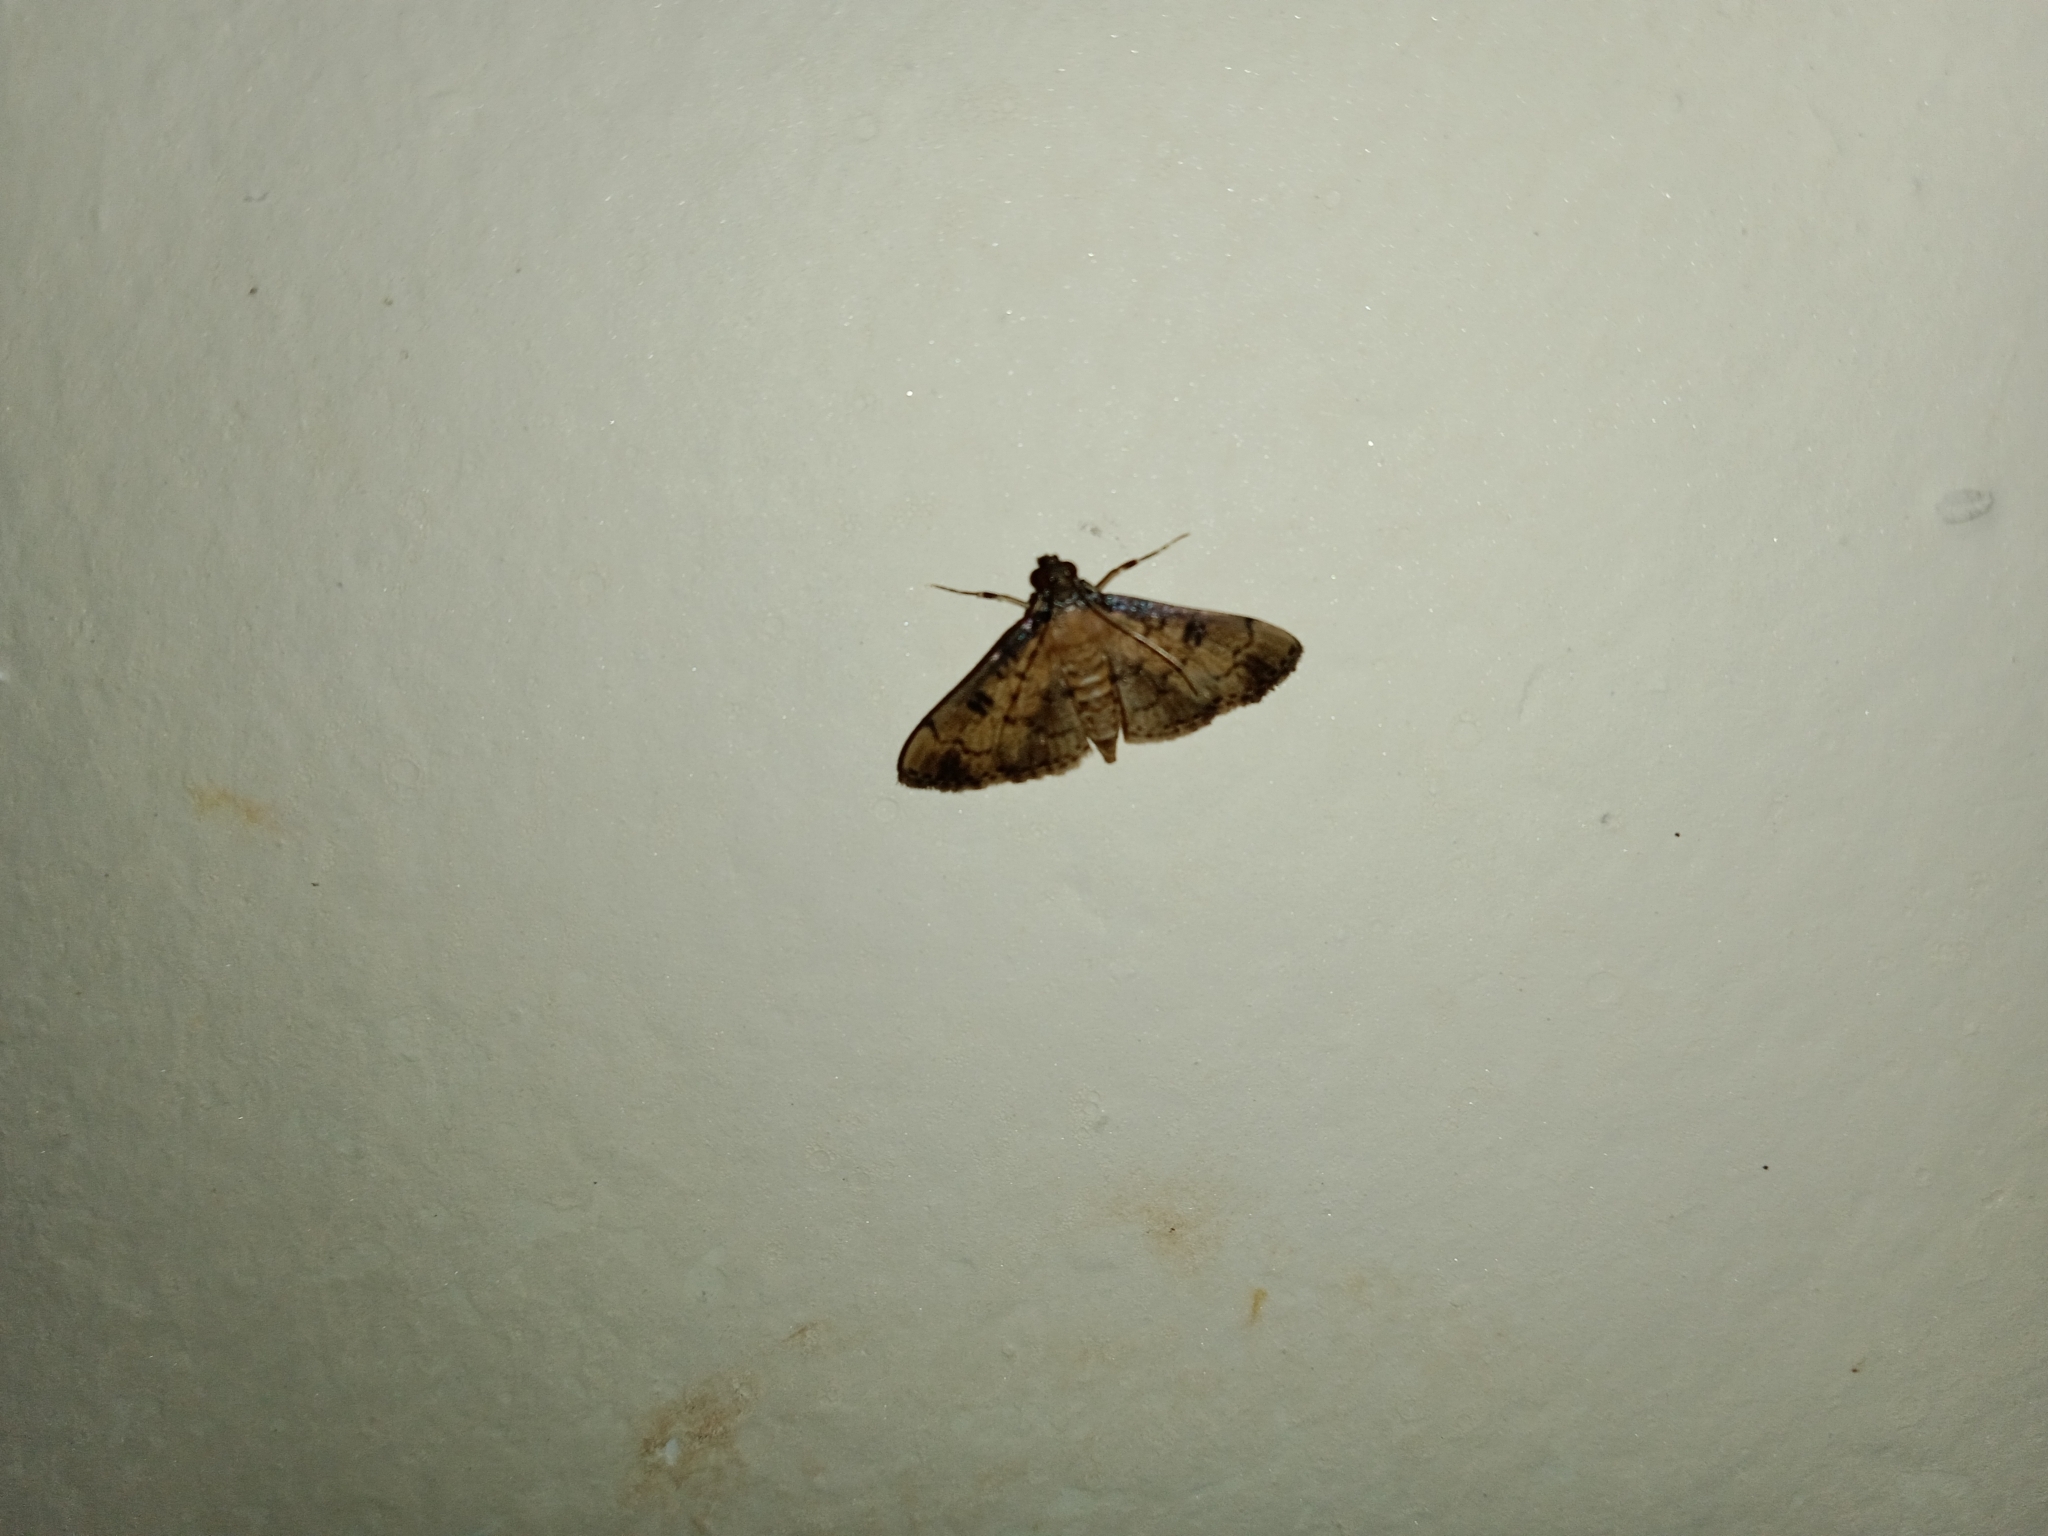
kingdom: Animalia
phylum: Arthropoda
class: Insecta
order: Lepidoptera
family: Crambidae
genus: Nacoleia
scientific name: Nacoleia charesalis
